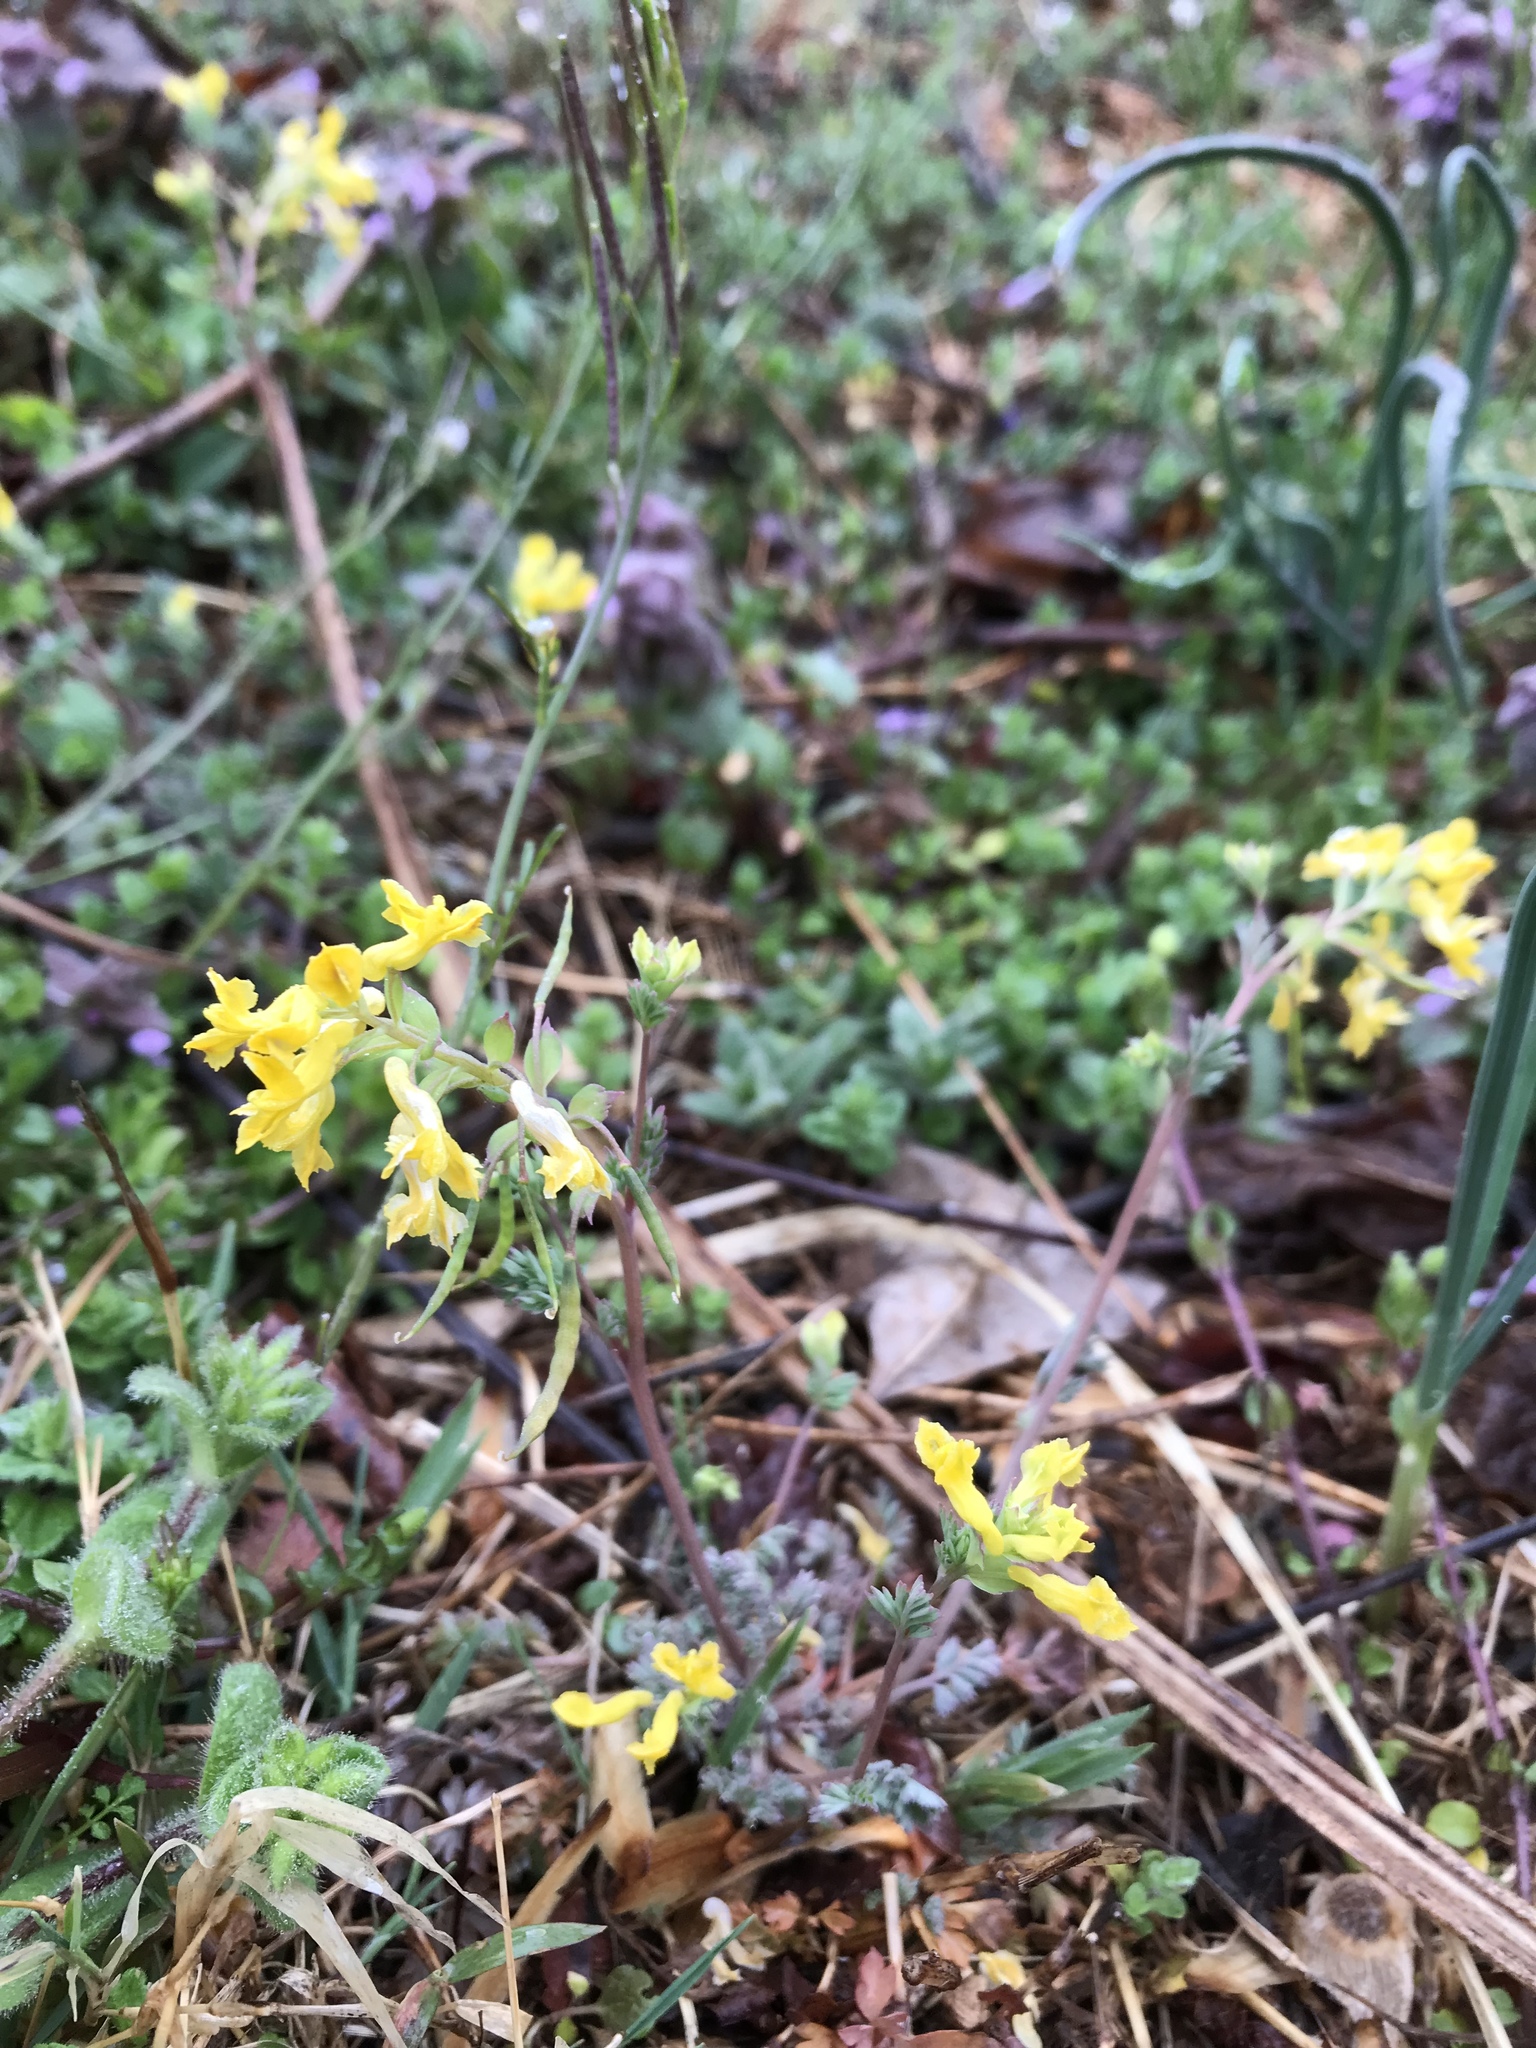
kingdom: Plantae
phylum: Tracheophyta
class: Magnoliopsida
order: Ranunculales
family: Papaveraceae
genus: Corydalis
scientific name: Corydalis flavula
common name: Yellow corydalis
